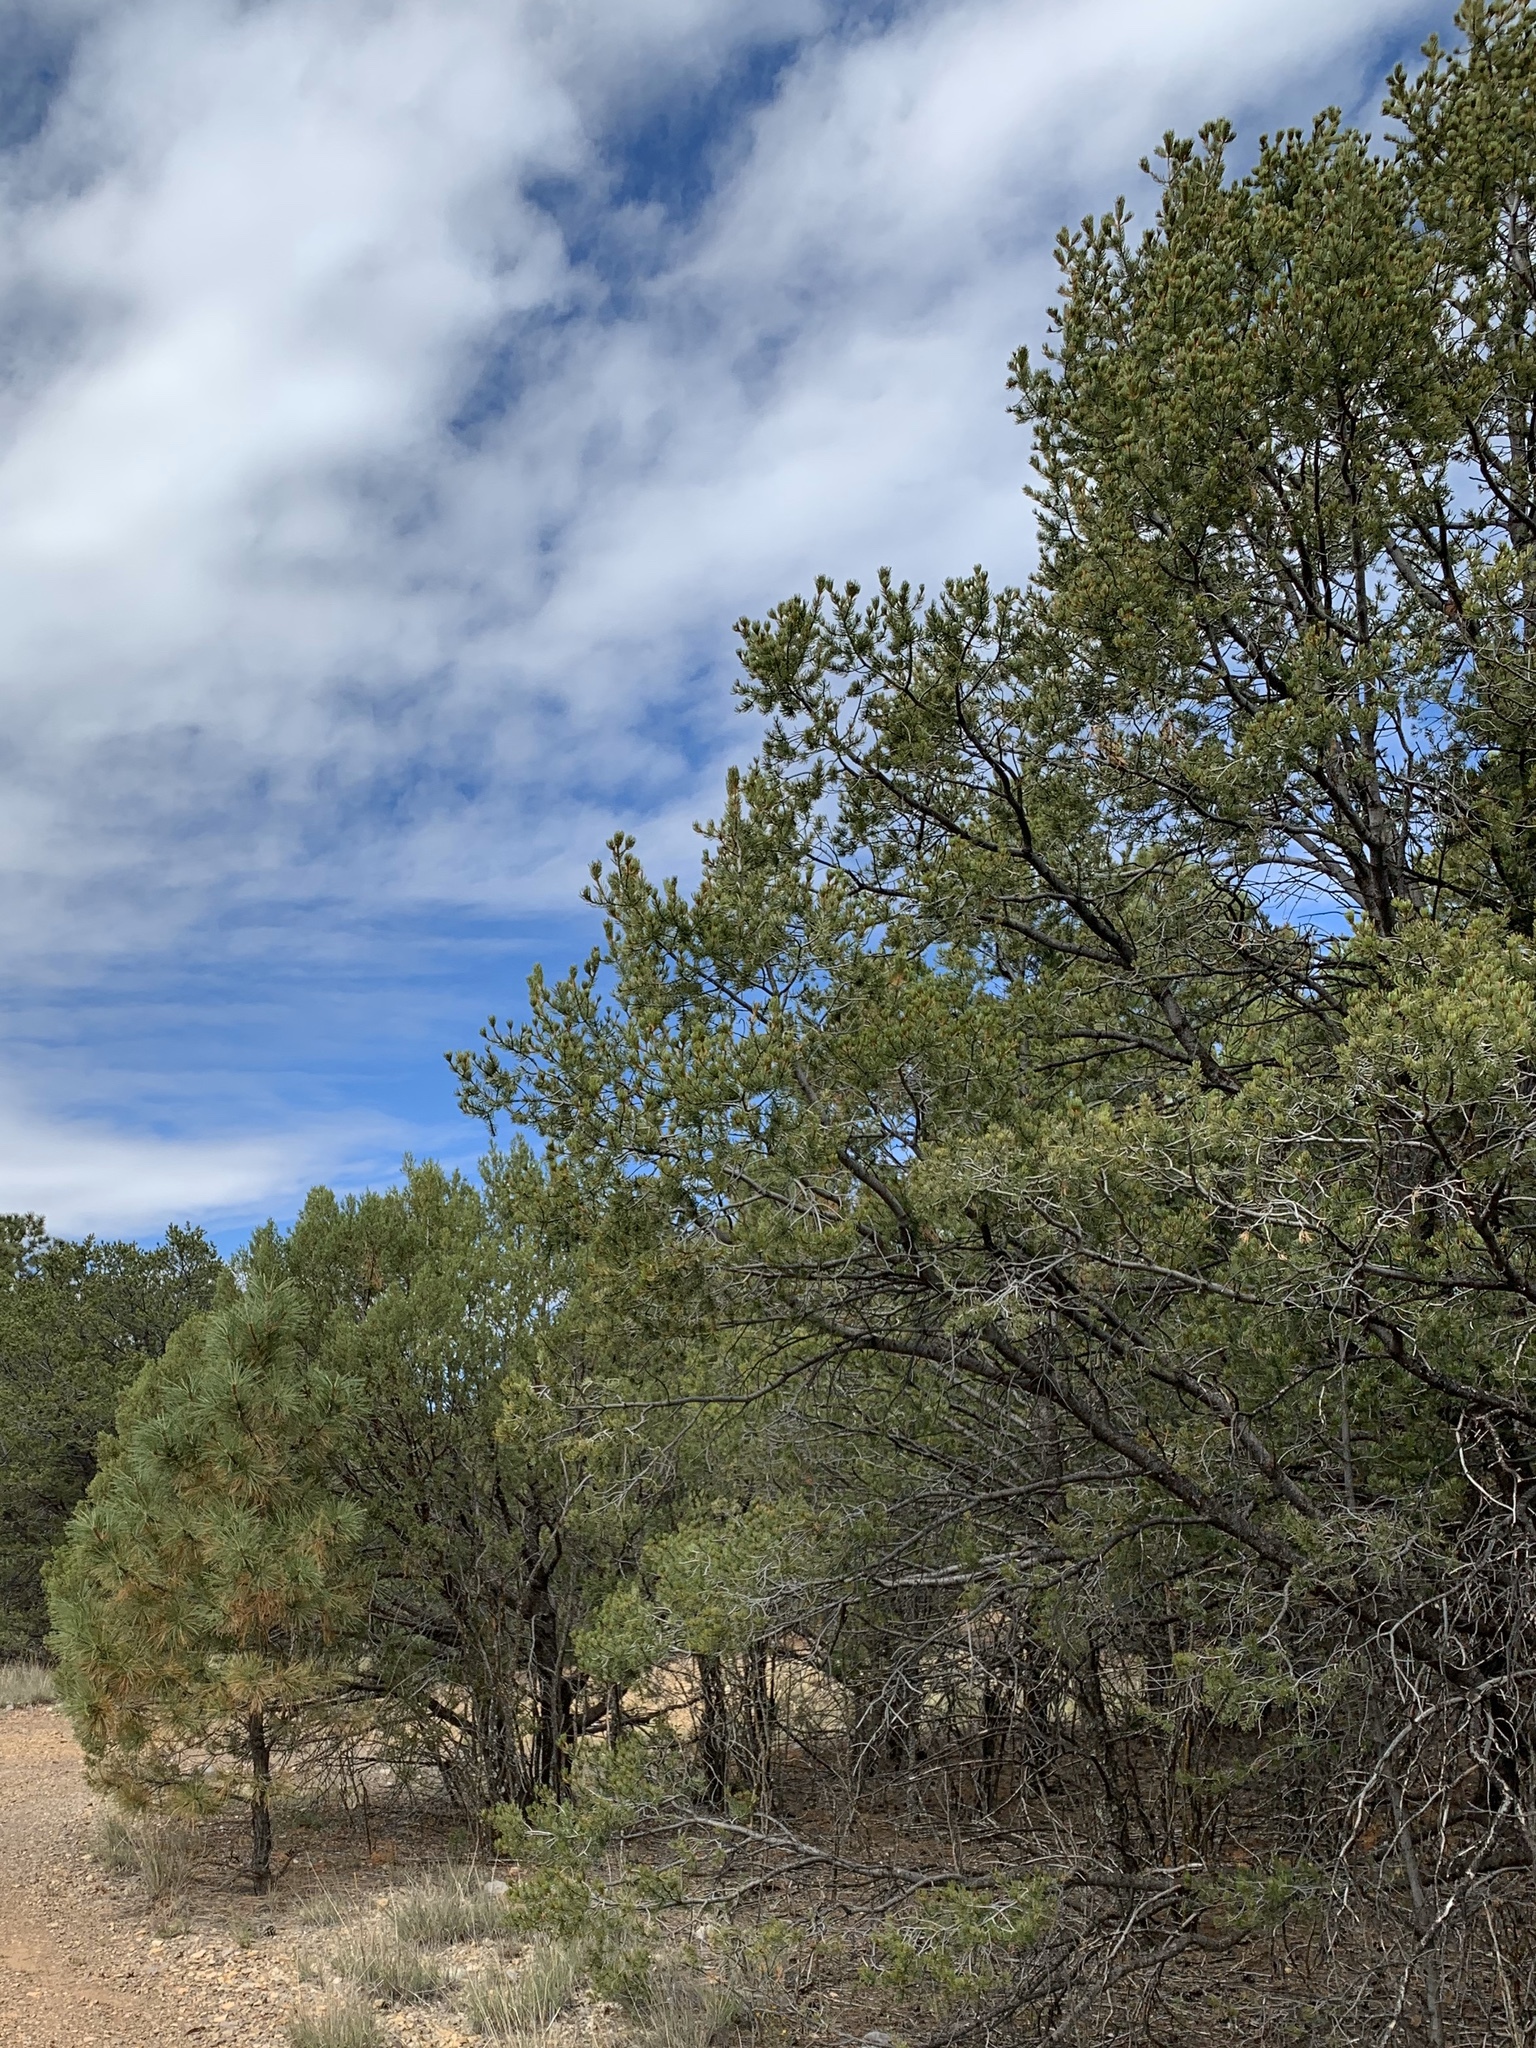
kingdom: Plantae
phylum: Tracheophyta
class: Pinopsida
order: Pinales
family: Pinaceae
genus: Pinus
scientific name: Pinus edulis
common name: Colorado pinyon
